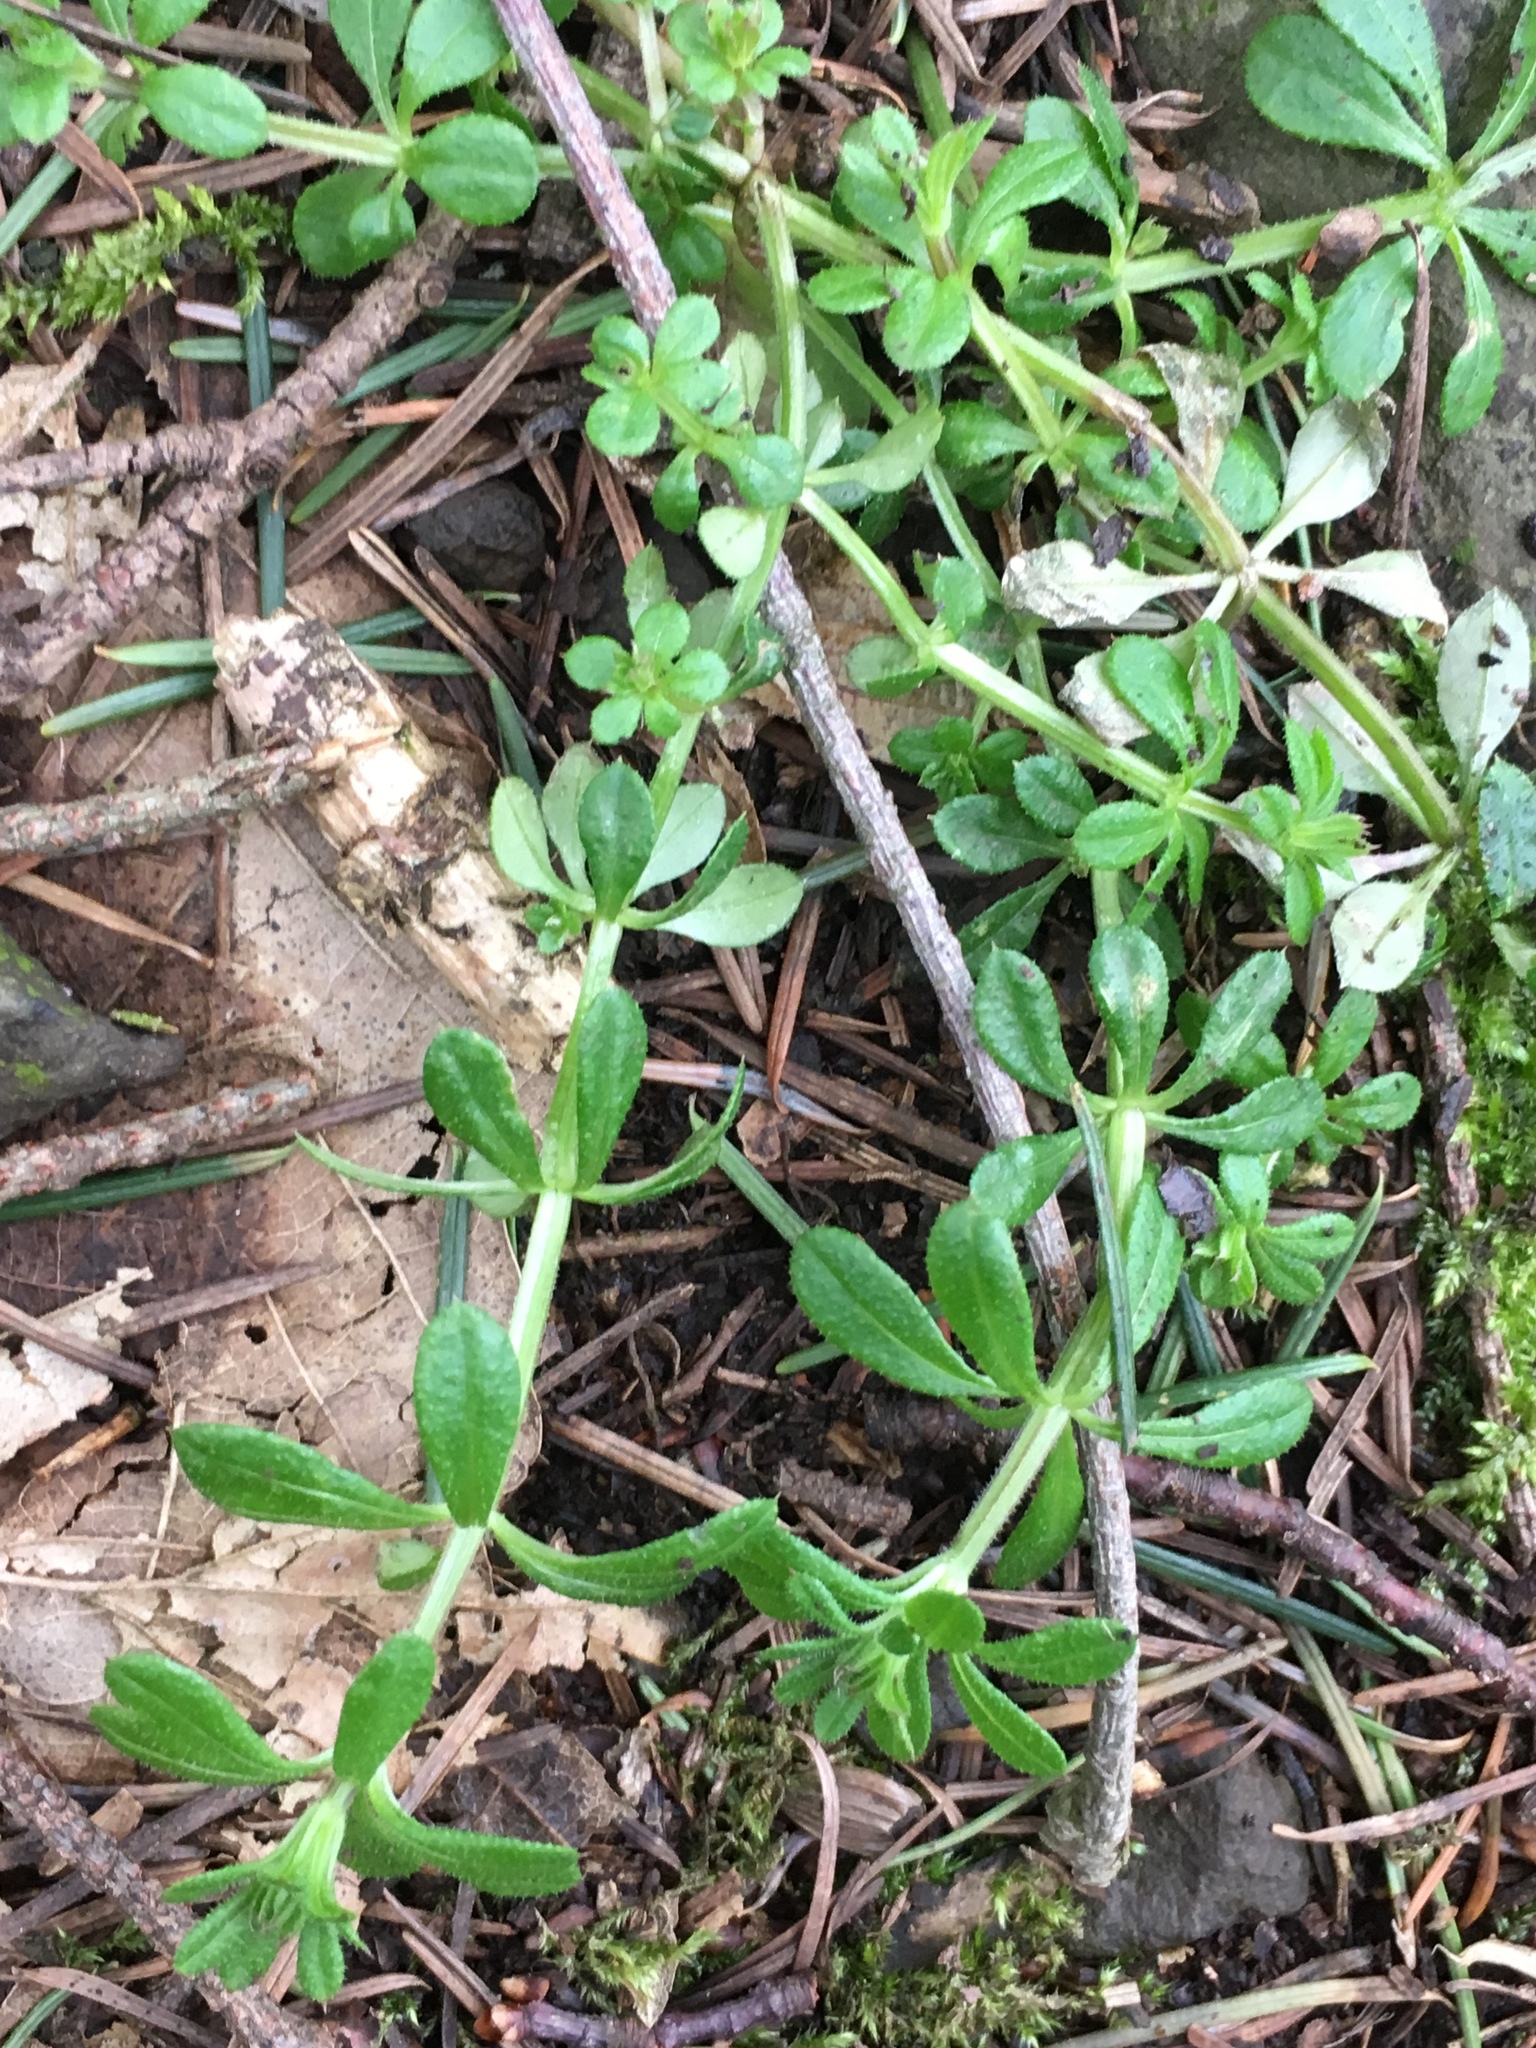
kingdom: Plantae
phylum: Tracheophyta
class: Magnoliopsida
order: Gentianales
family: Rubiaceae
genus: Galium
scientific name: Galium aparine
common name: Cleavers
